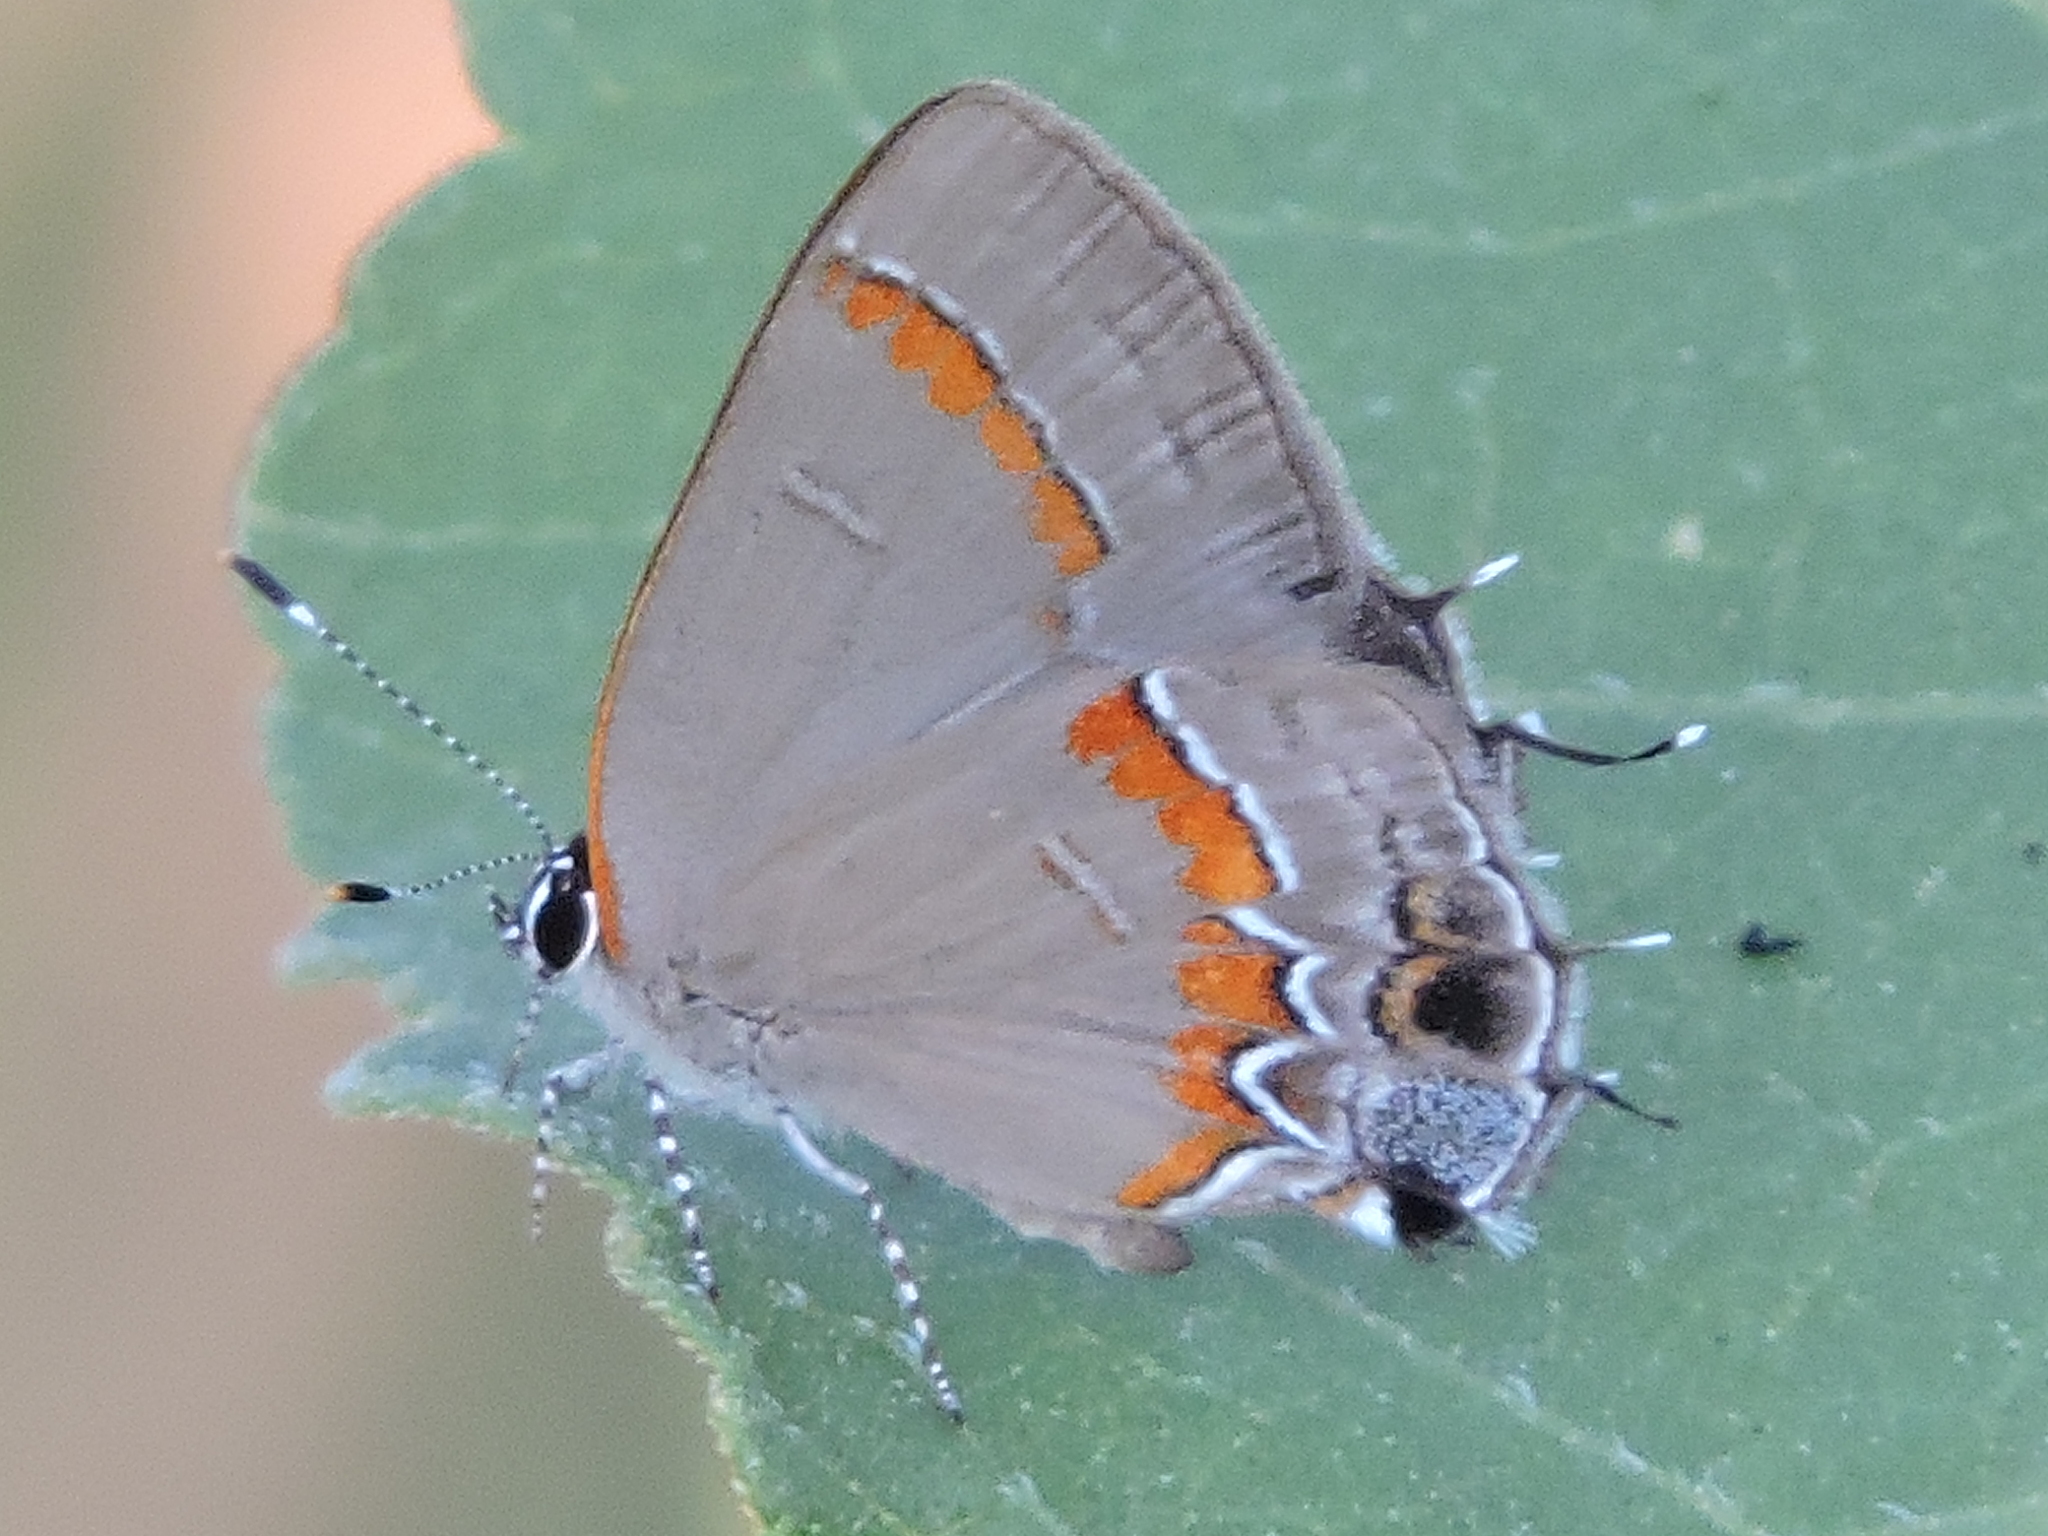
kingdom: Animalia
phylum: Arthropoda
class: Insecta
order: Lepidoptera
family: Lycaenidae
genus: Calycopis
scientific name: Calycopis cecrops
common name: Red-banded hairstreak
